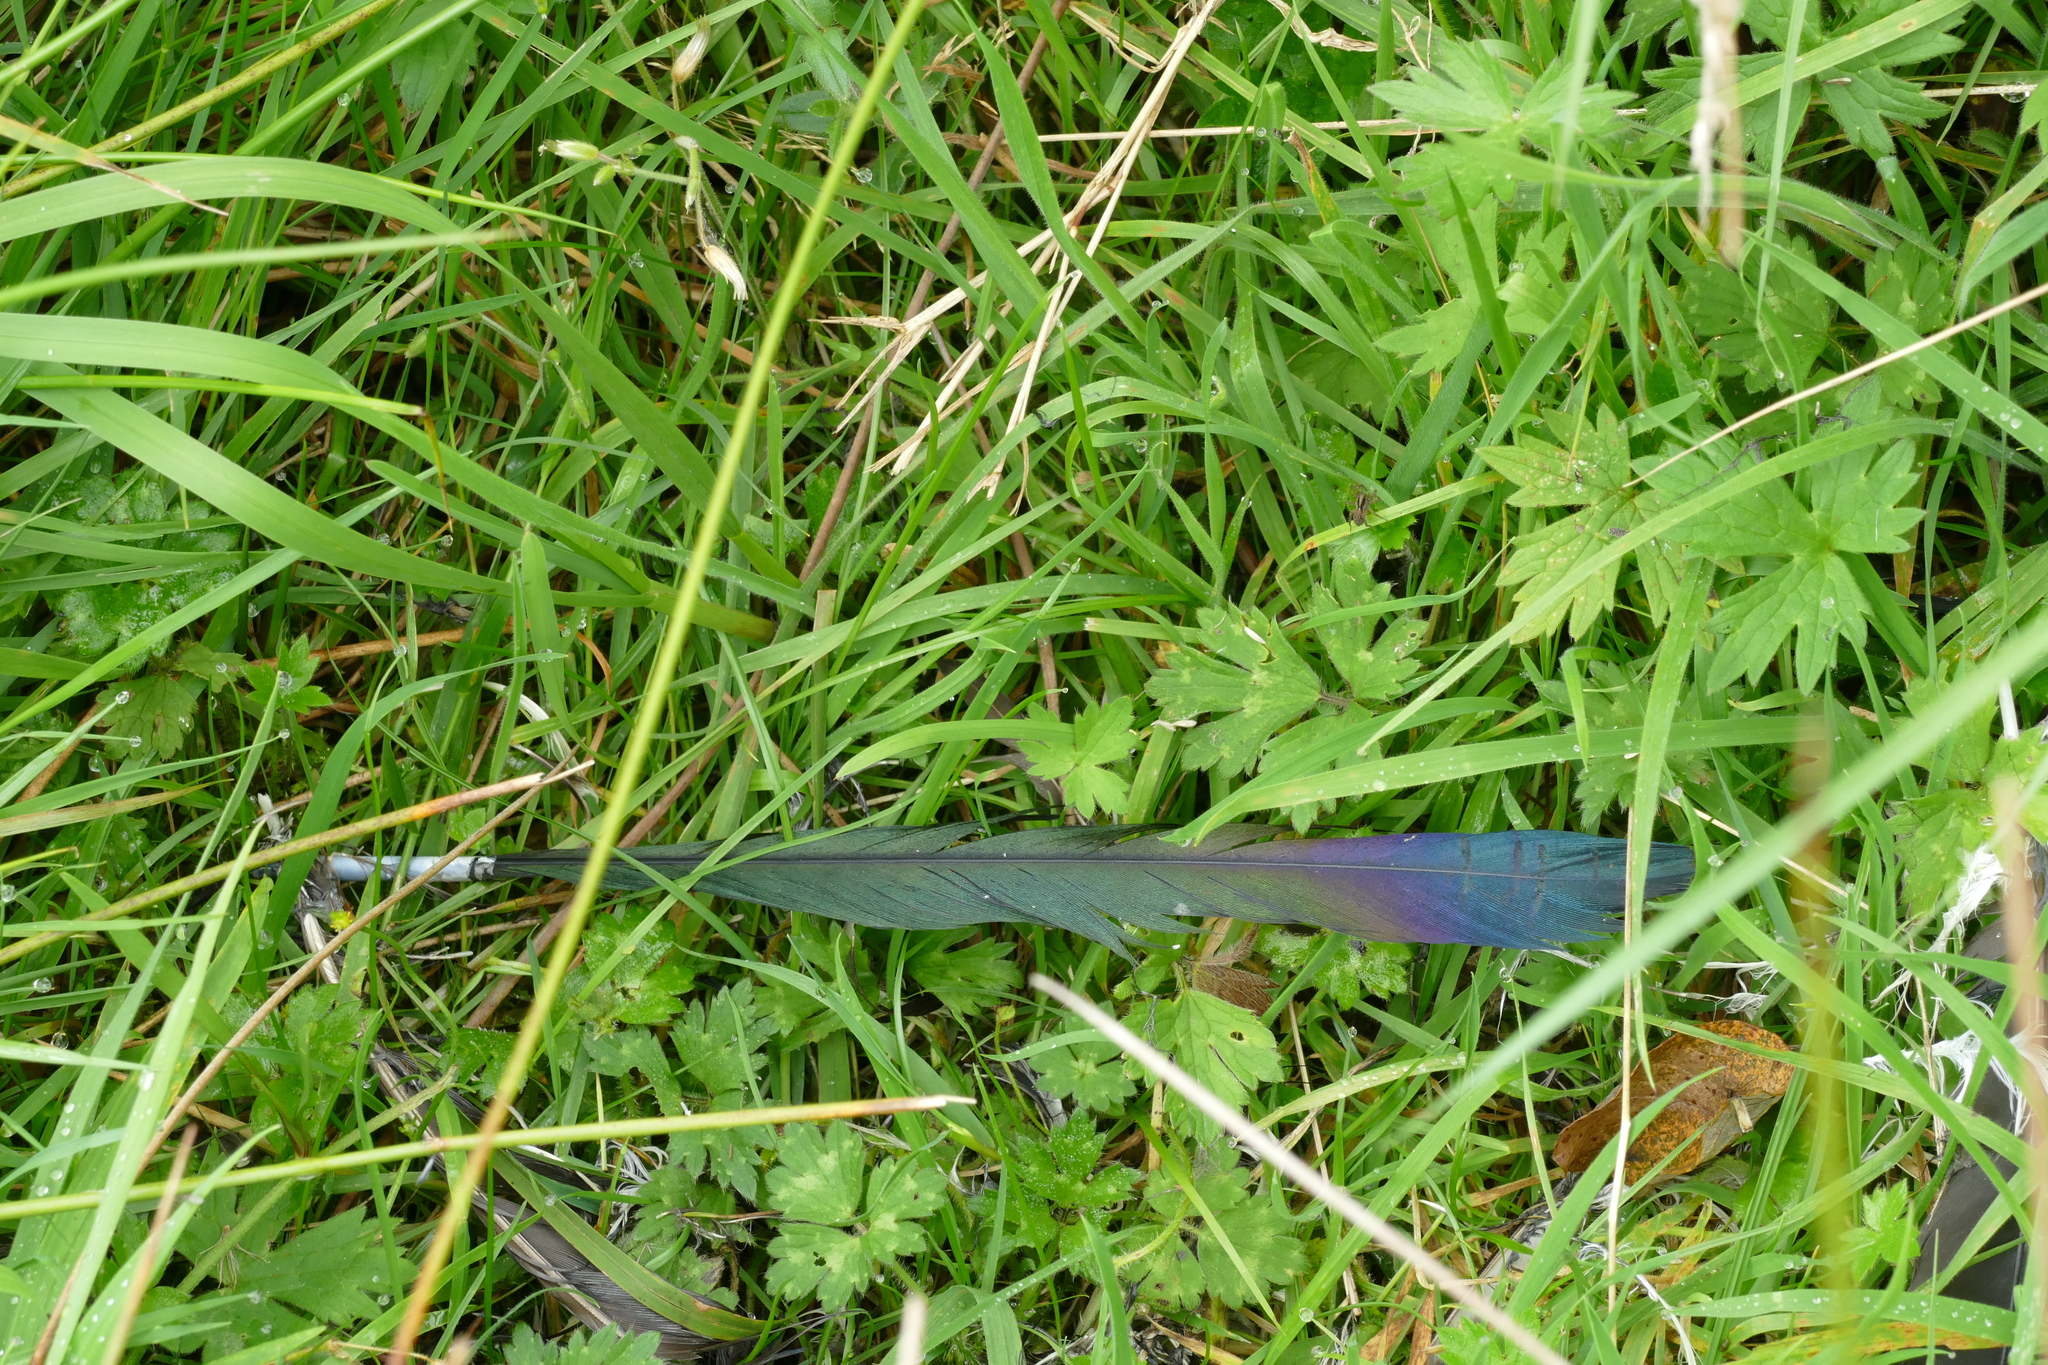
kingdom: Animalia
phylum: Chordata
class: Aves
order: Passeriformes
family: Corvidae
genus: Pica
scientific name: Pica pica
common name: Eurasian magpie
